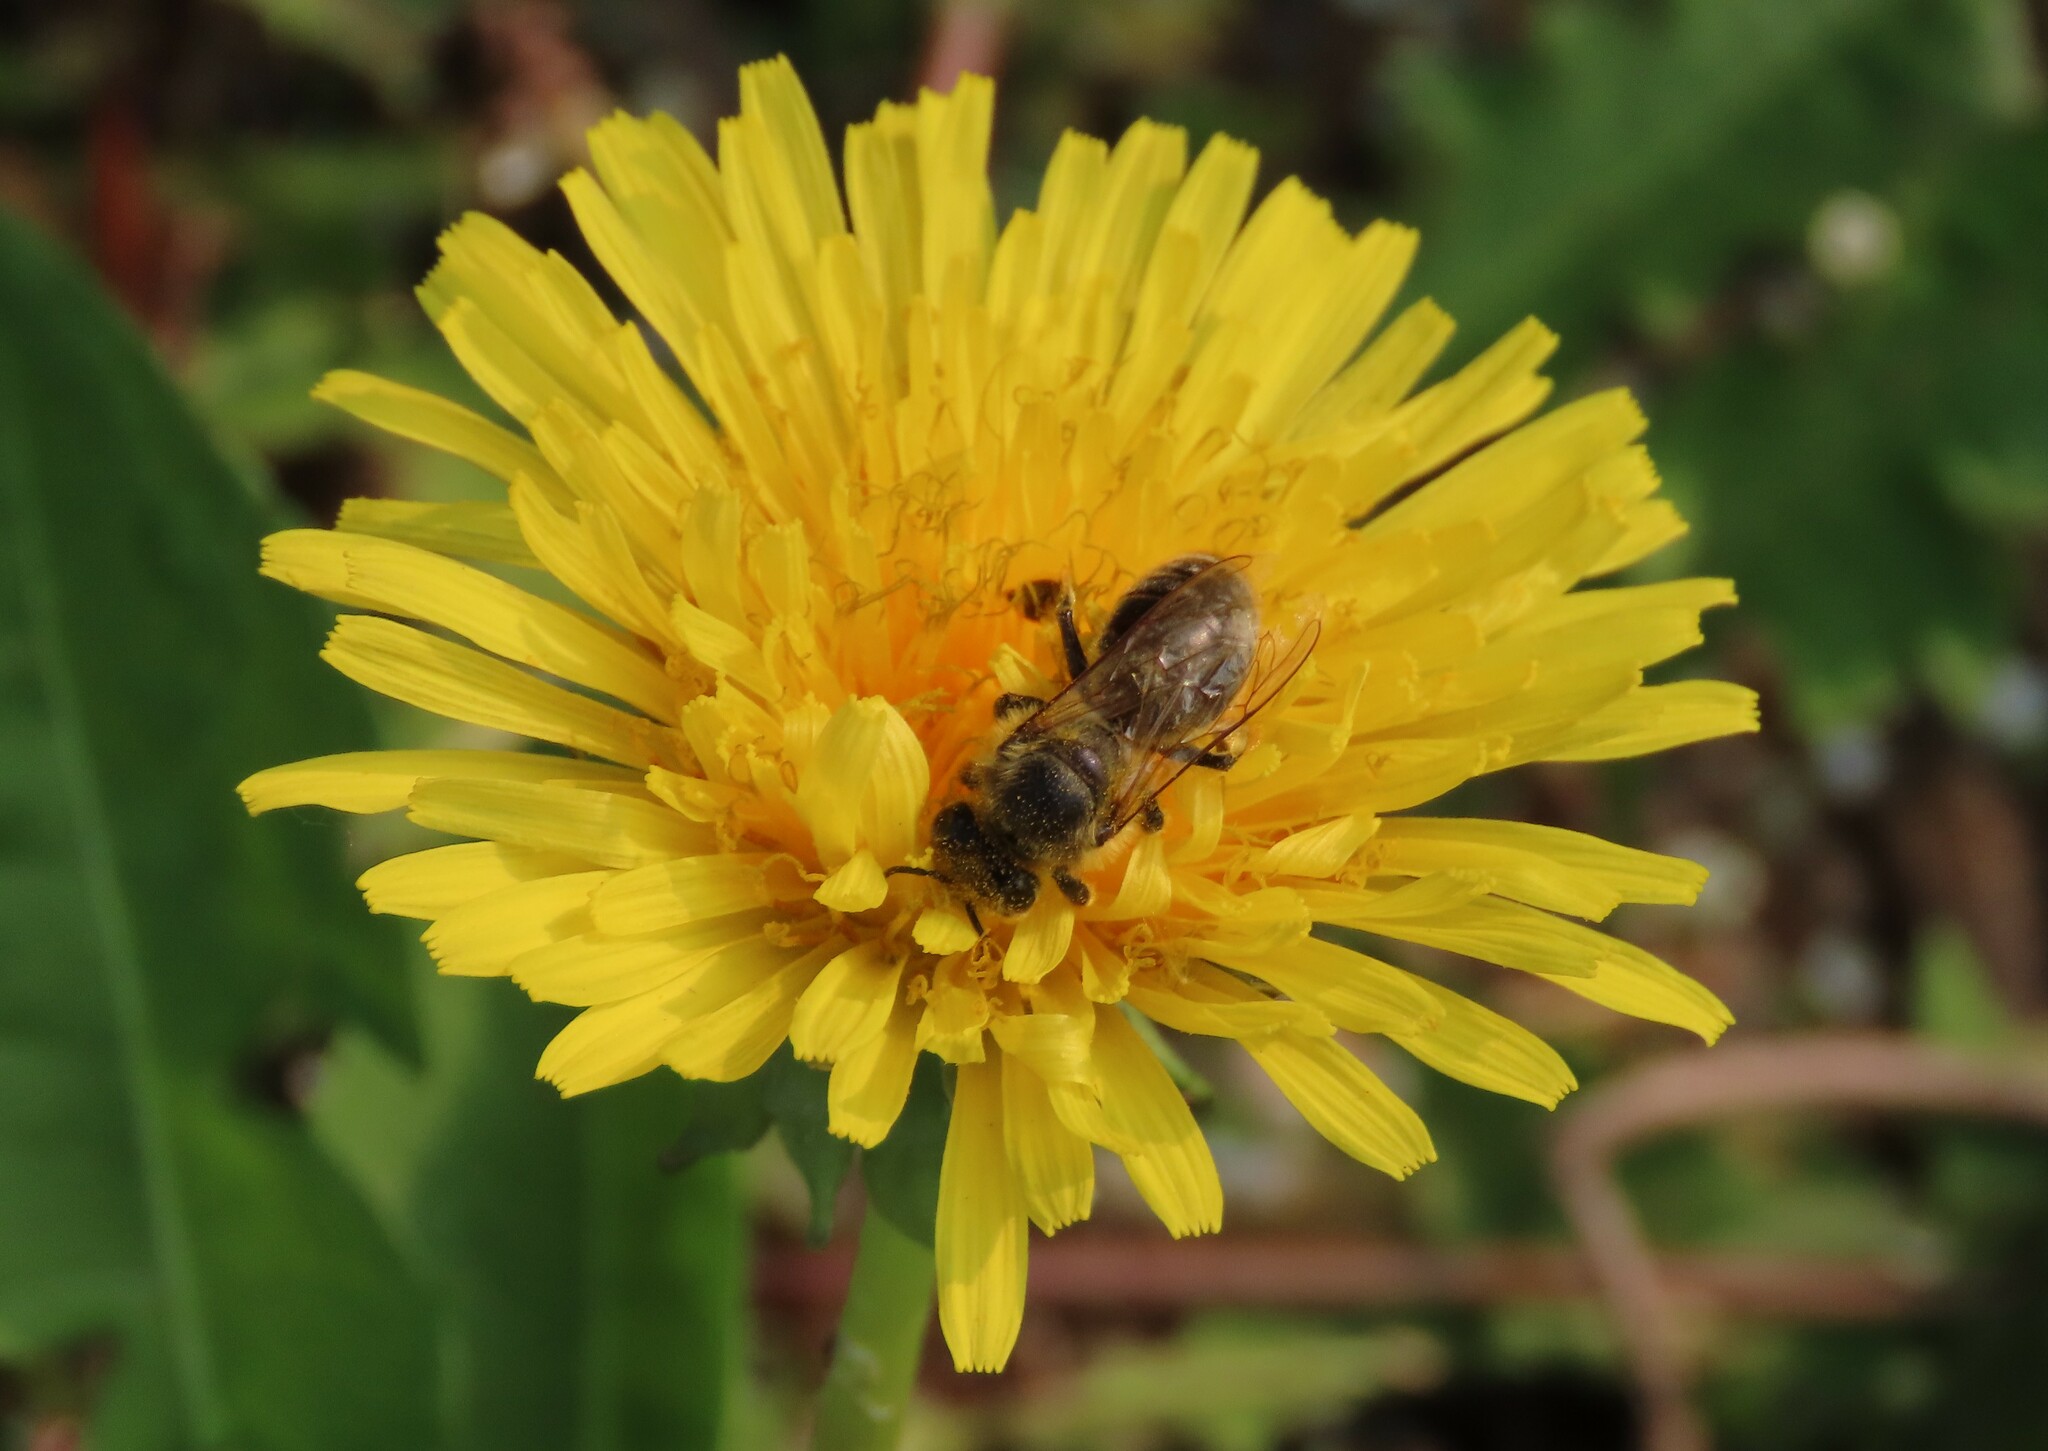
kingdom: Animalia
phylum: Arthropoda
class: Insecta
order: Hymenoptera
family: Apidae
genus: Apis
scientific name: Apis mellifera
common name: Honey bee
